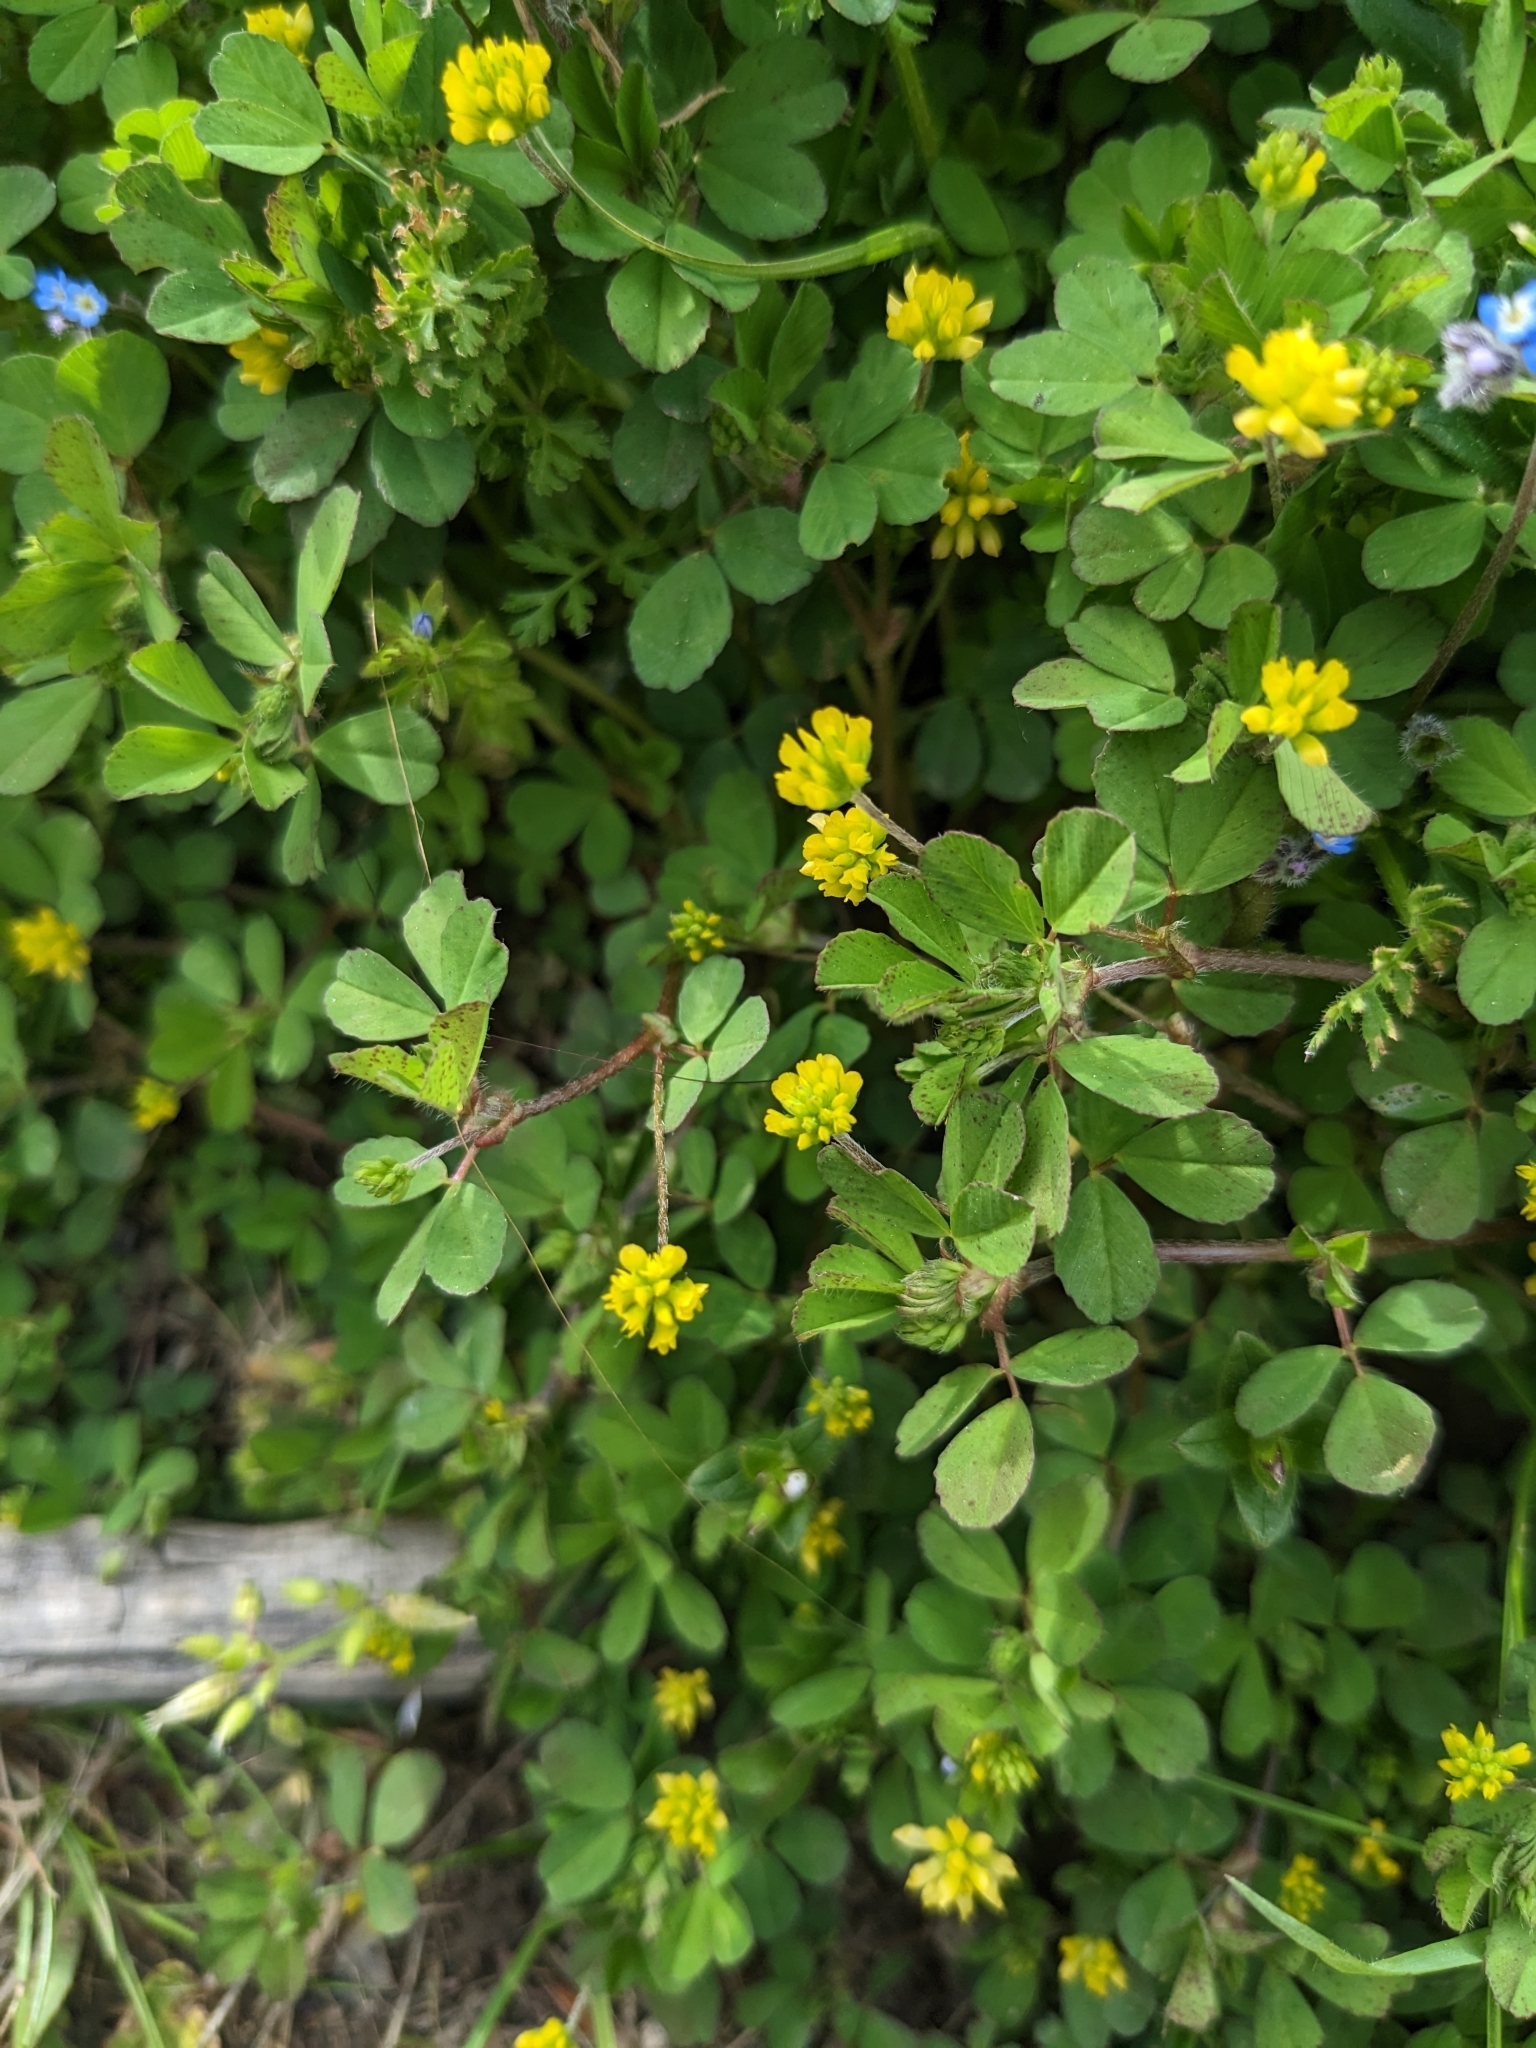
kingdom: Plantae
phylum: Tracheophyta
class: Magnoliopsida
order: Fabales
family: Fabaceae
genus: Trifolium
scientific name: Trifolium dubium
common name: Suckling clover
